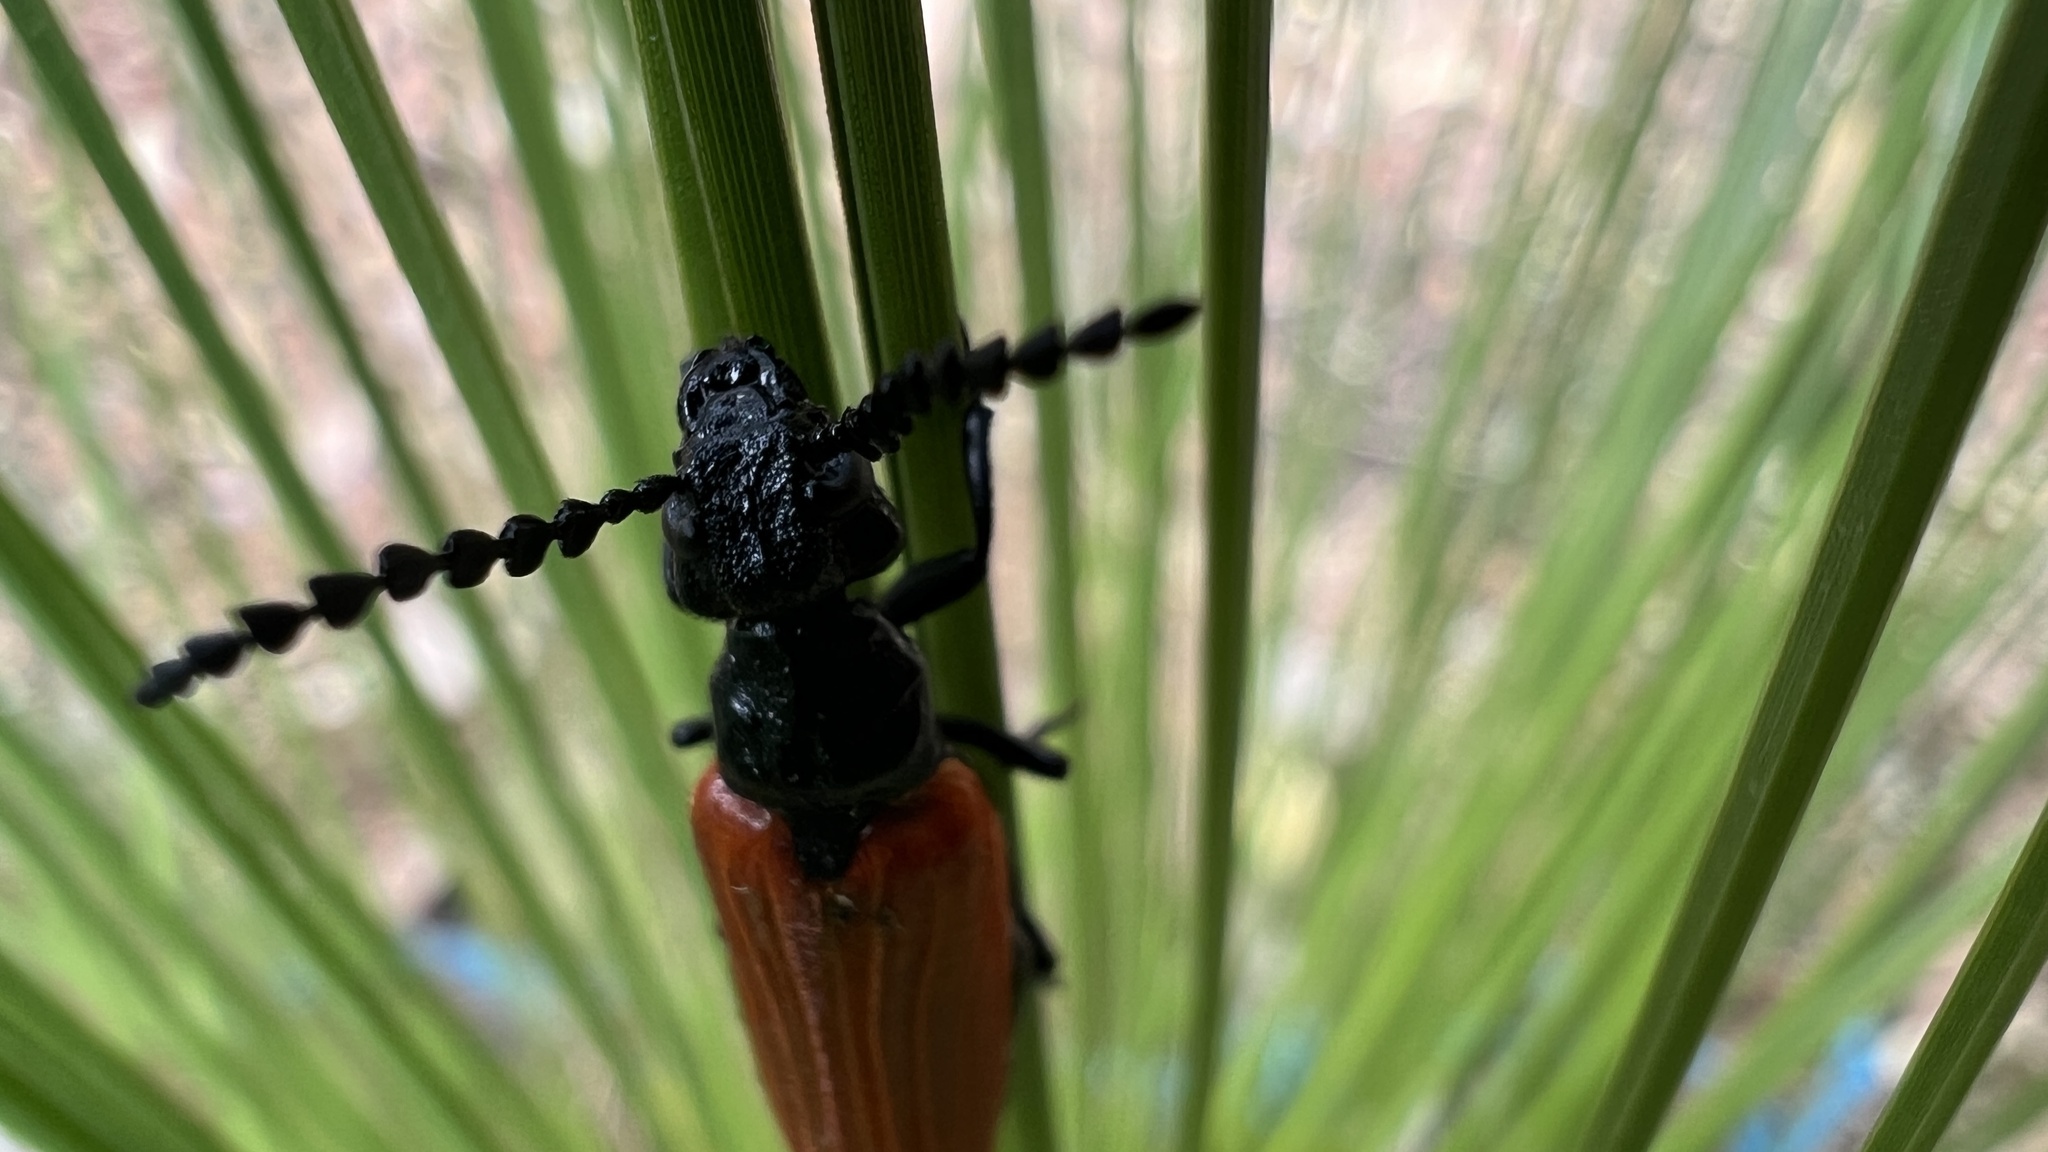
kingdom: Animalia
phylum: Arthropoda
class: Insecta
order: Coleoptera
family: Meloidae
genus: Palaestrida
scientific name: Palaestrida
